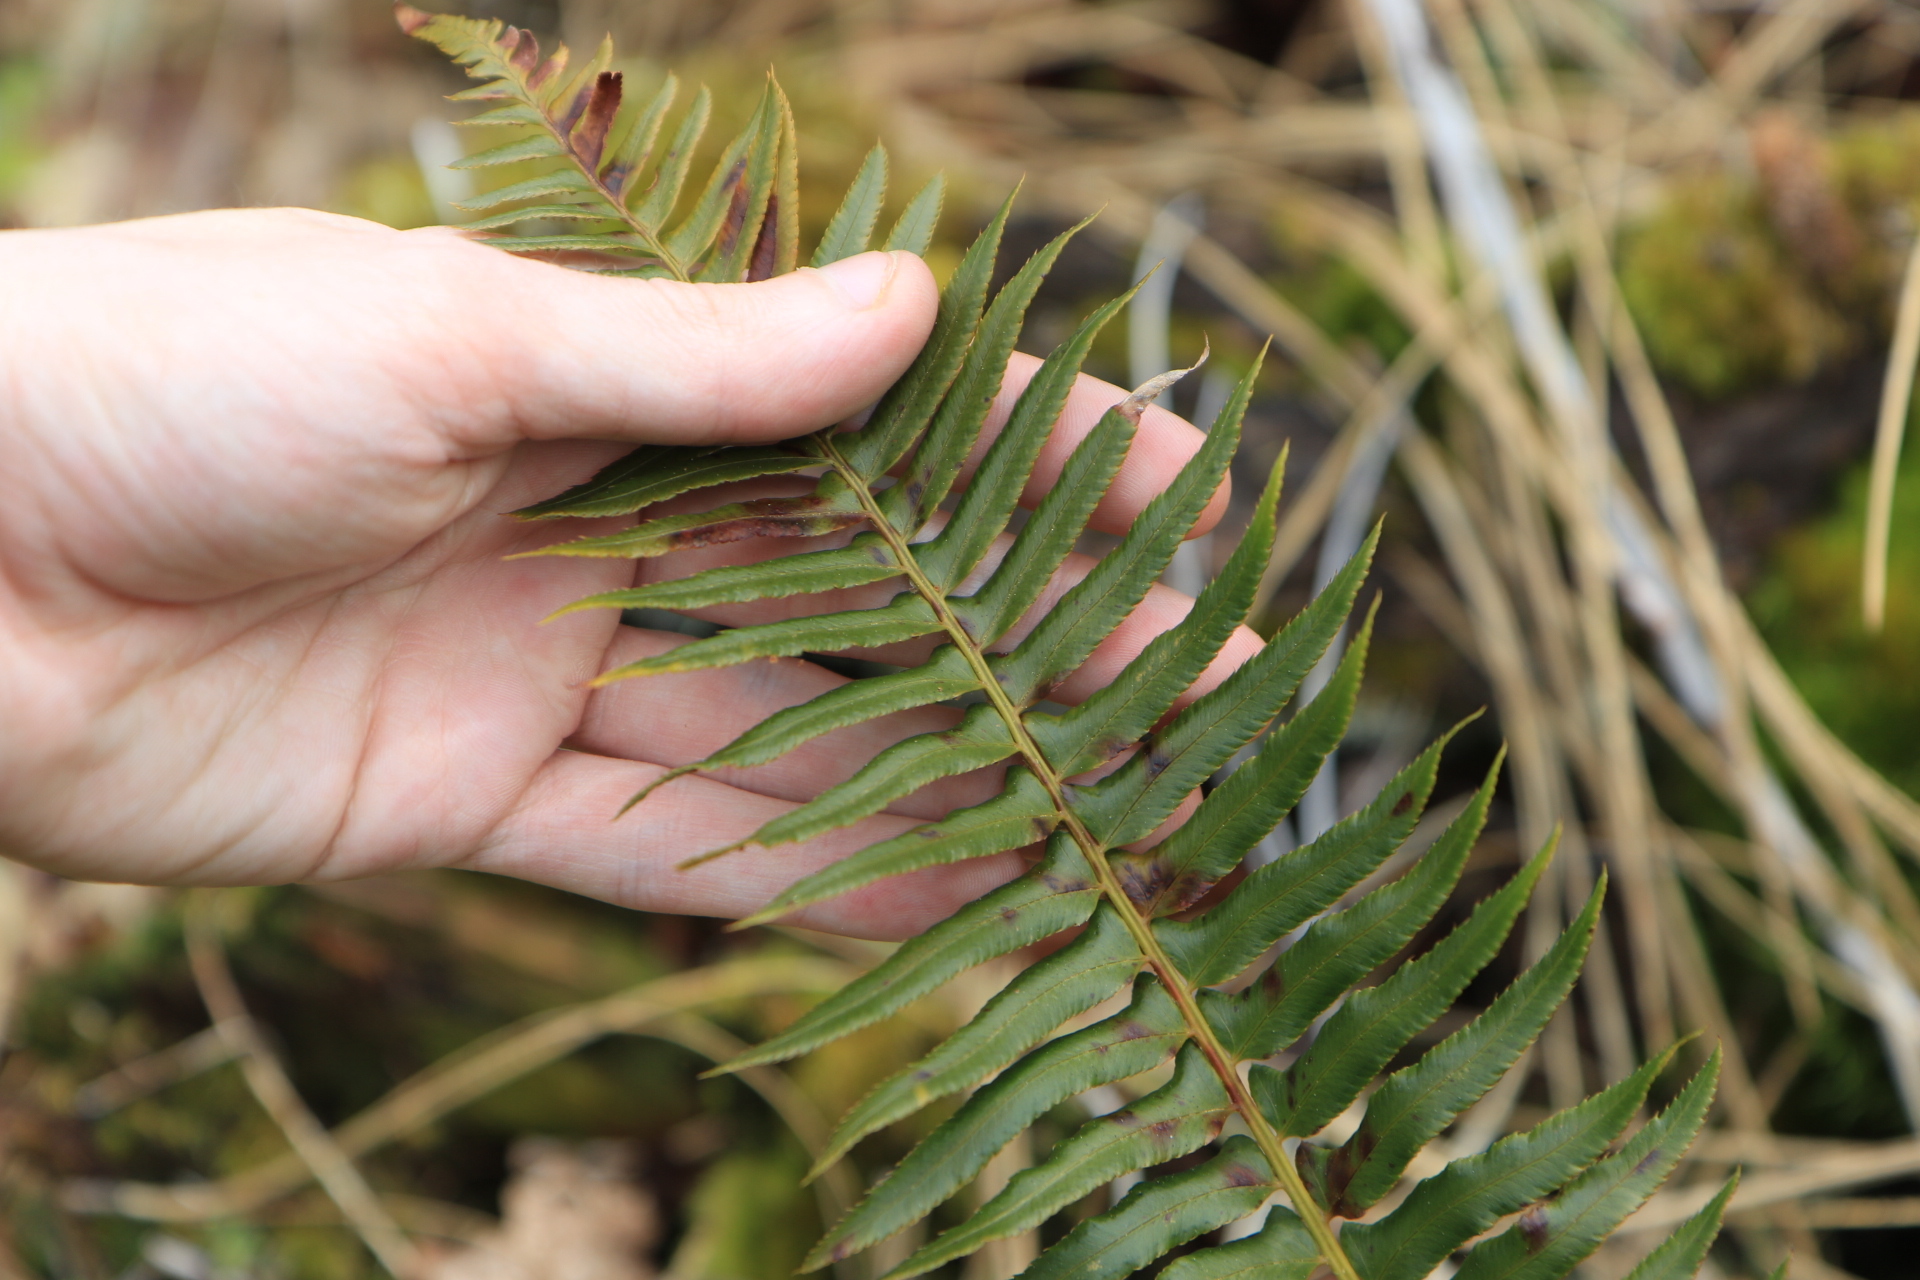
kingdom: Plantae
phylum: Tracheophyta
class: Polypodiopsida
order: Polypodiales
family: Dryopteridaceae
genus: Polystichum
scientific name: Polystichum munitum
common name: Western sword-fern
